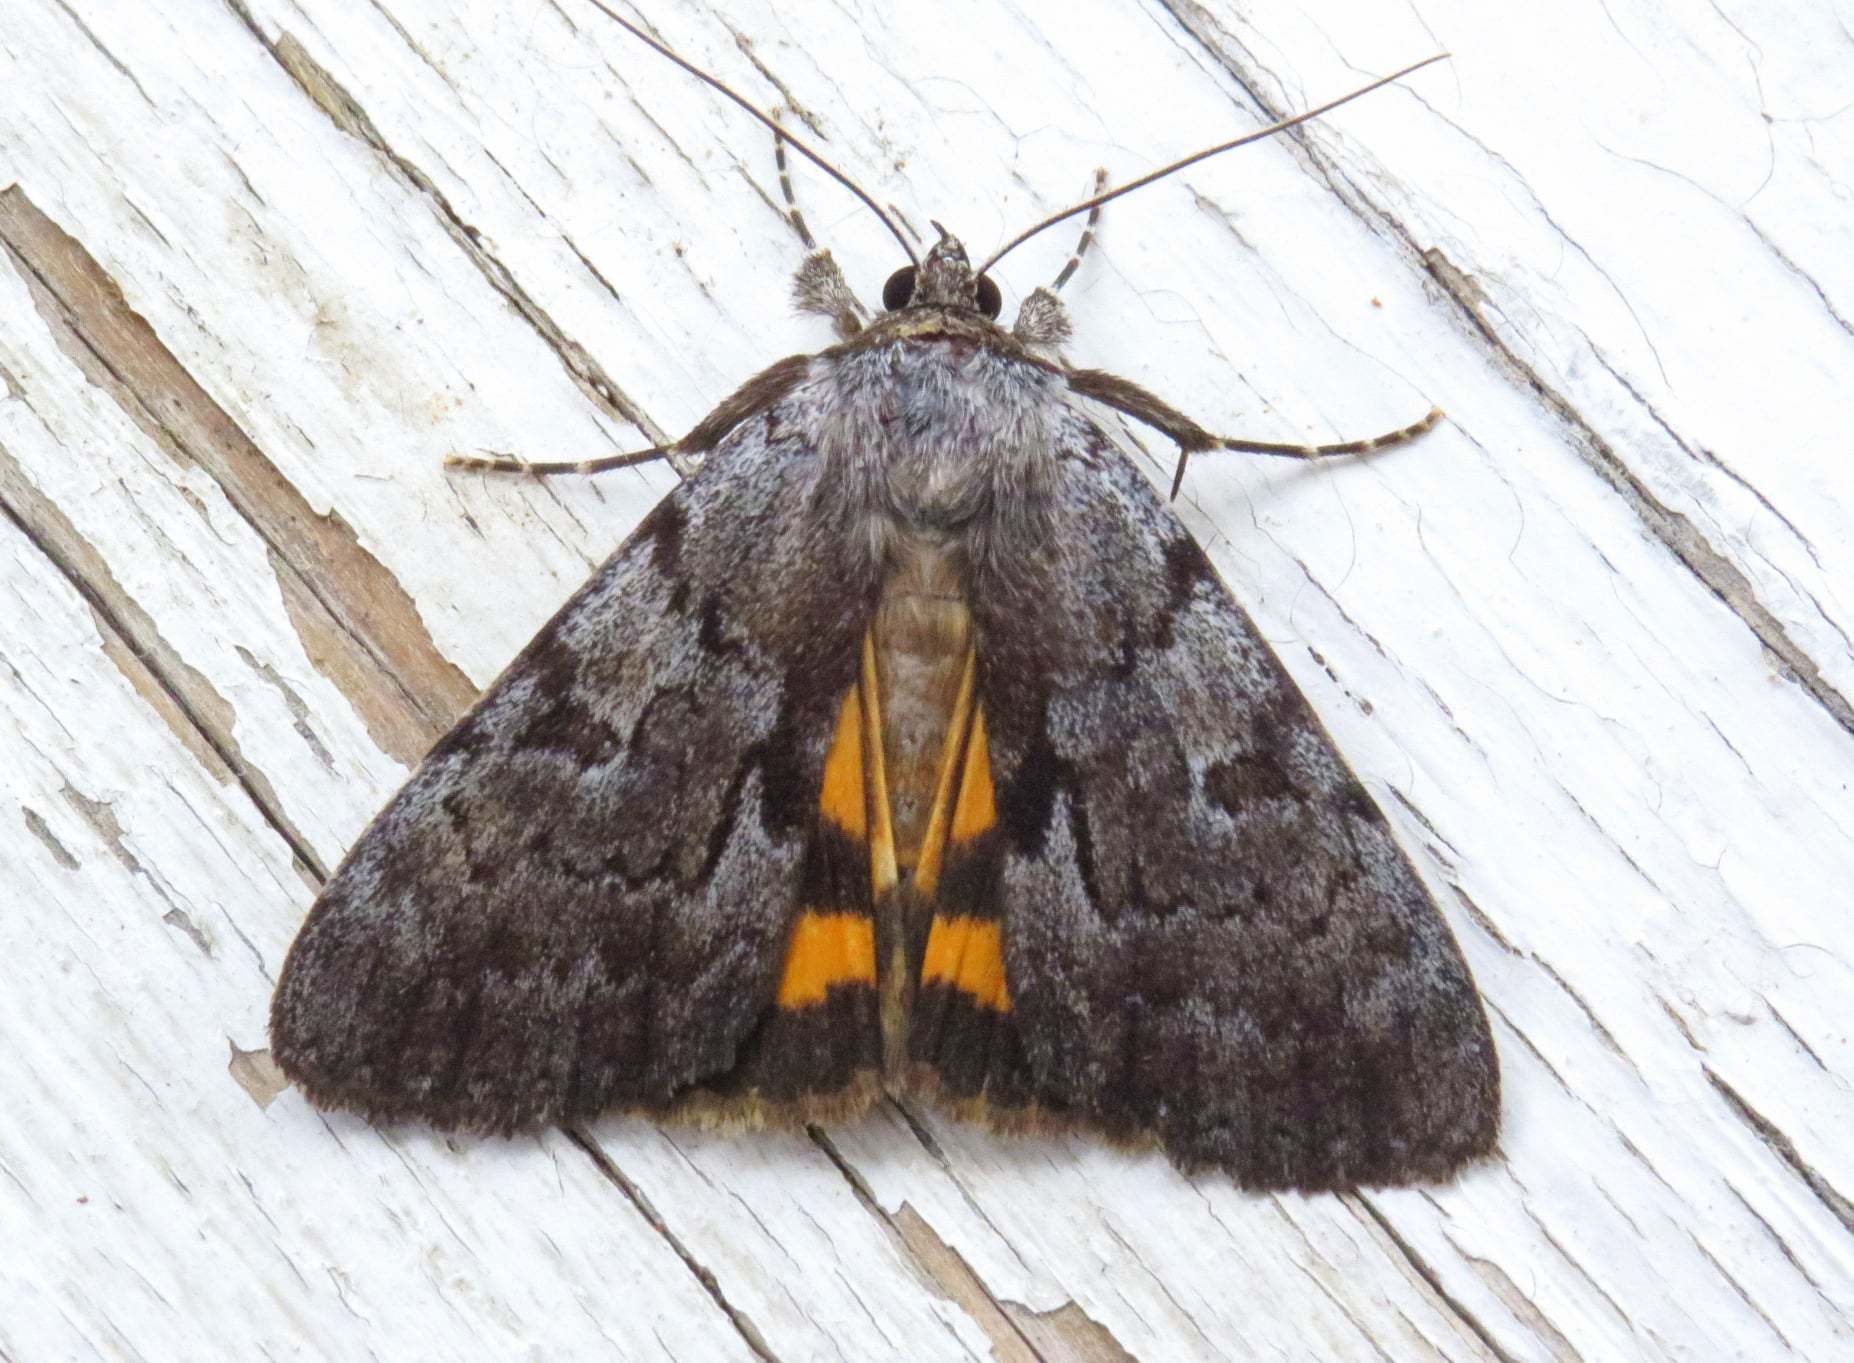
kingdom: Animalia
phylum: Arthropoda
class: Insecta
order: Lepidoptera
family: Erebidae
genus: Catocala
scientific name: Catocala sordida
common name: Sordid underwing
